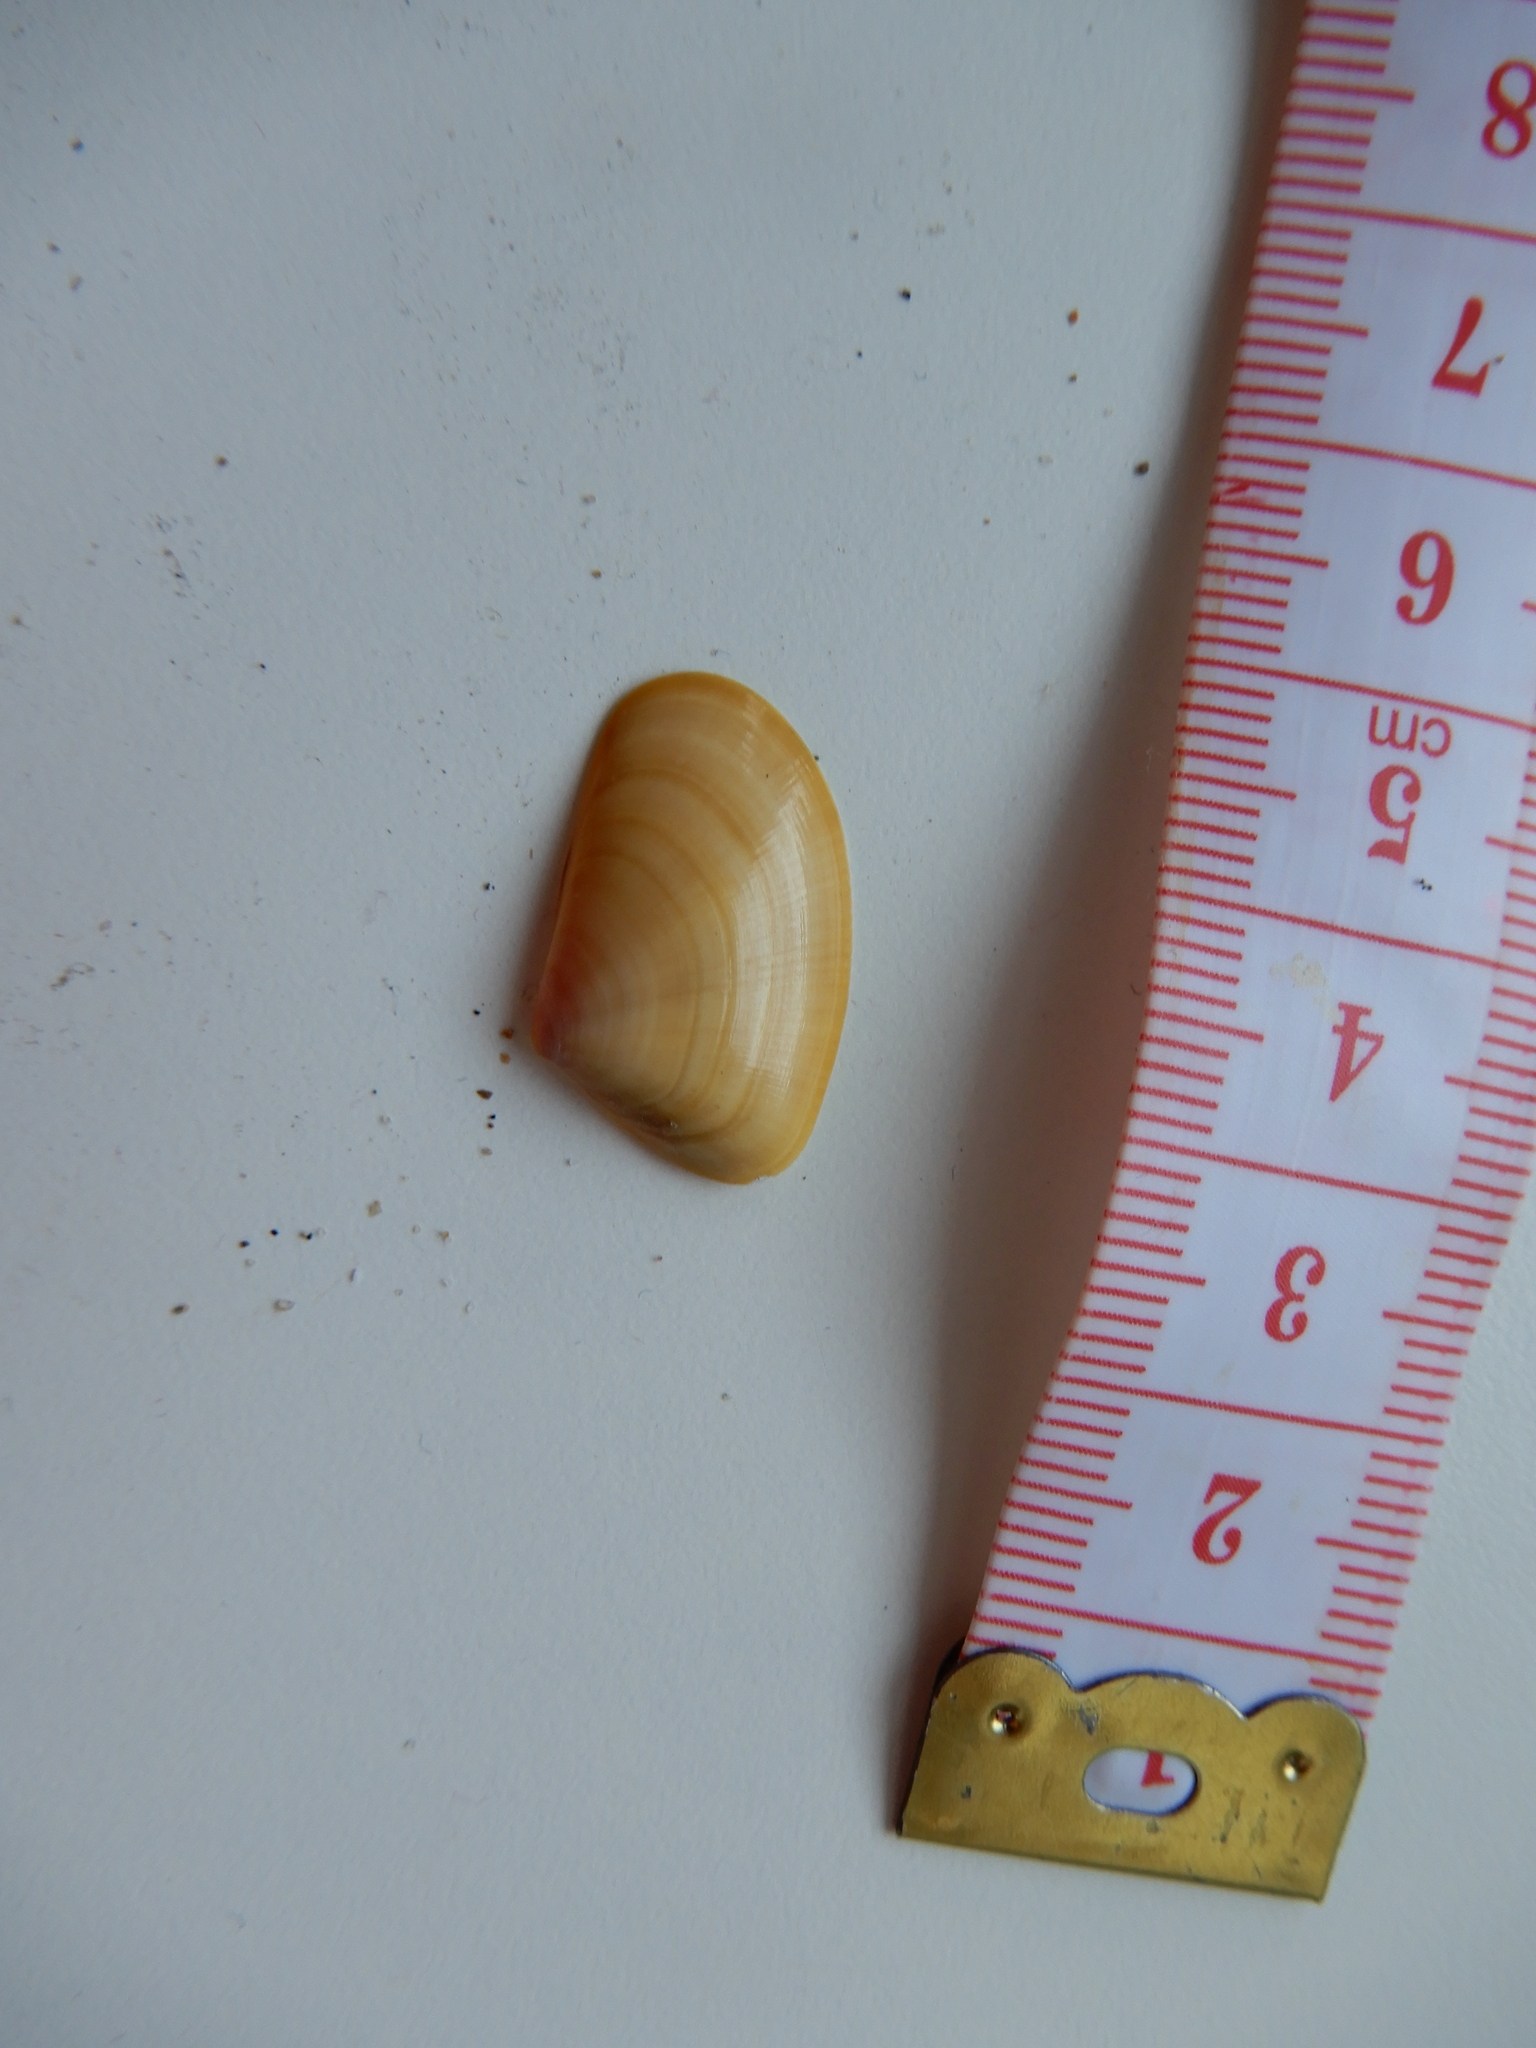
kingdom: Animalia
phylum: Mollusca
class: Bivalvia
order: Cardiida
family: Donacidae
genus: Donax
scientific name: Donax trunculus
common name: Truncate donax
